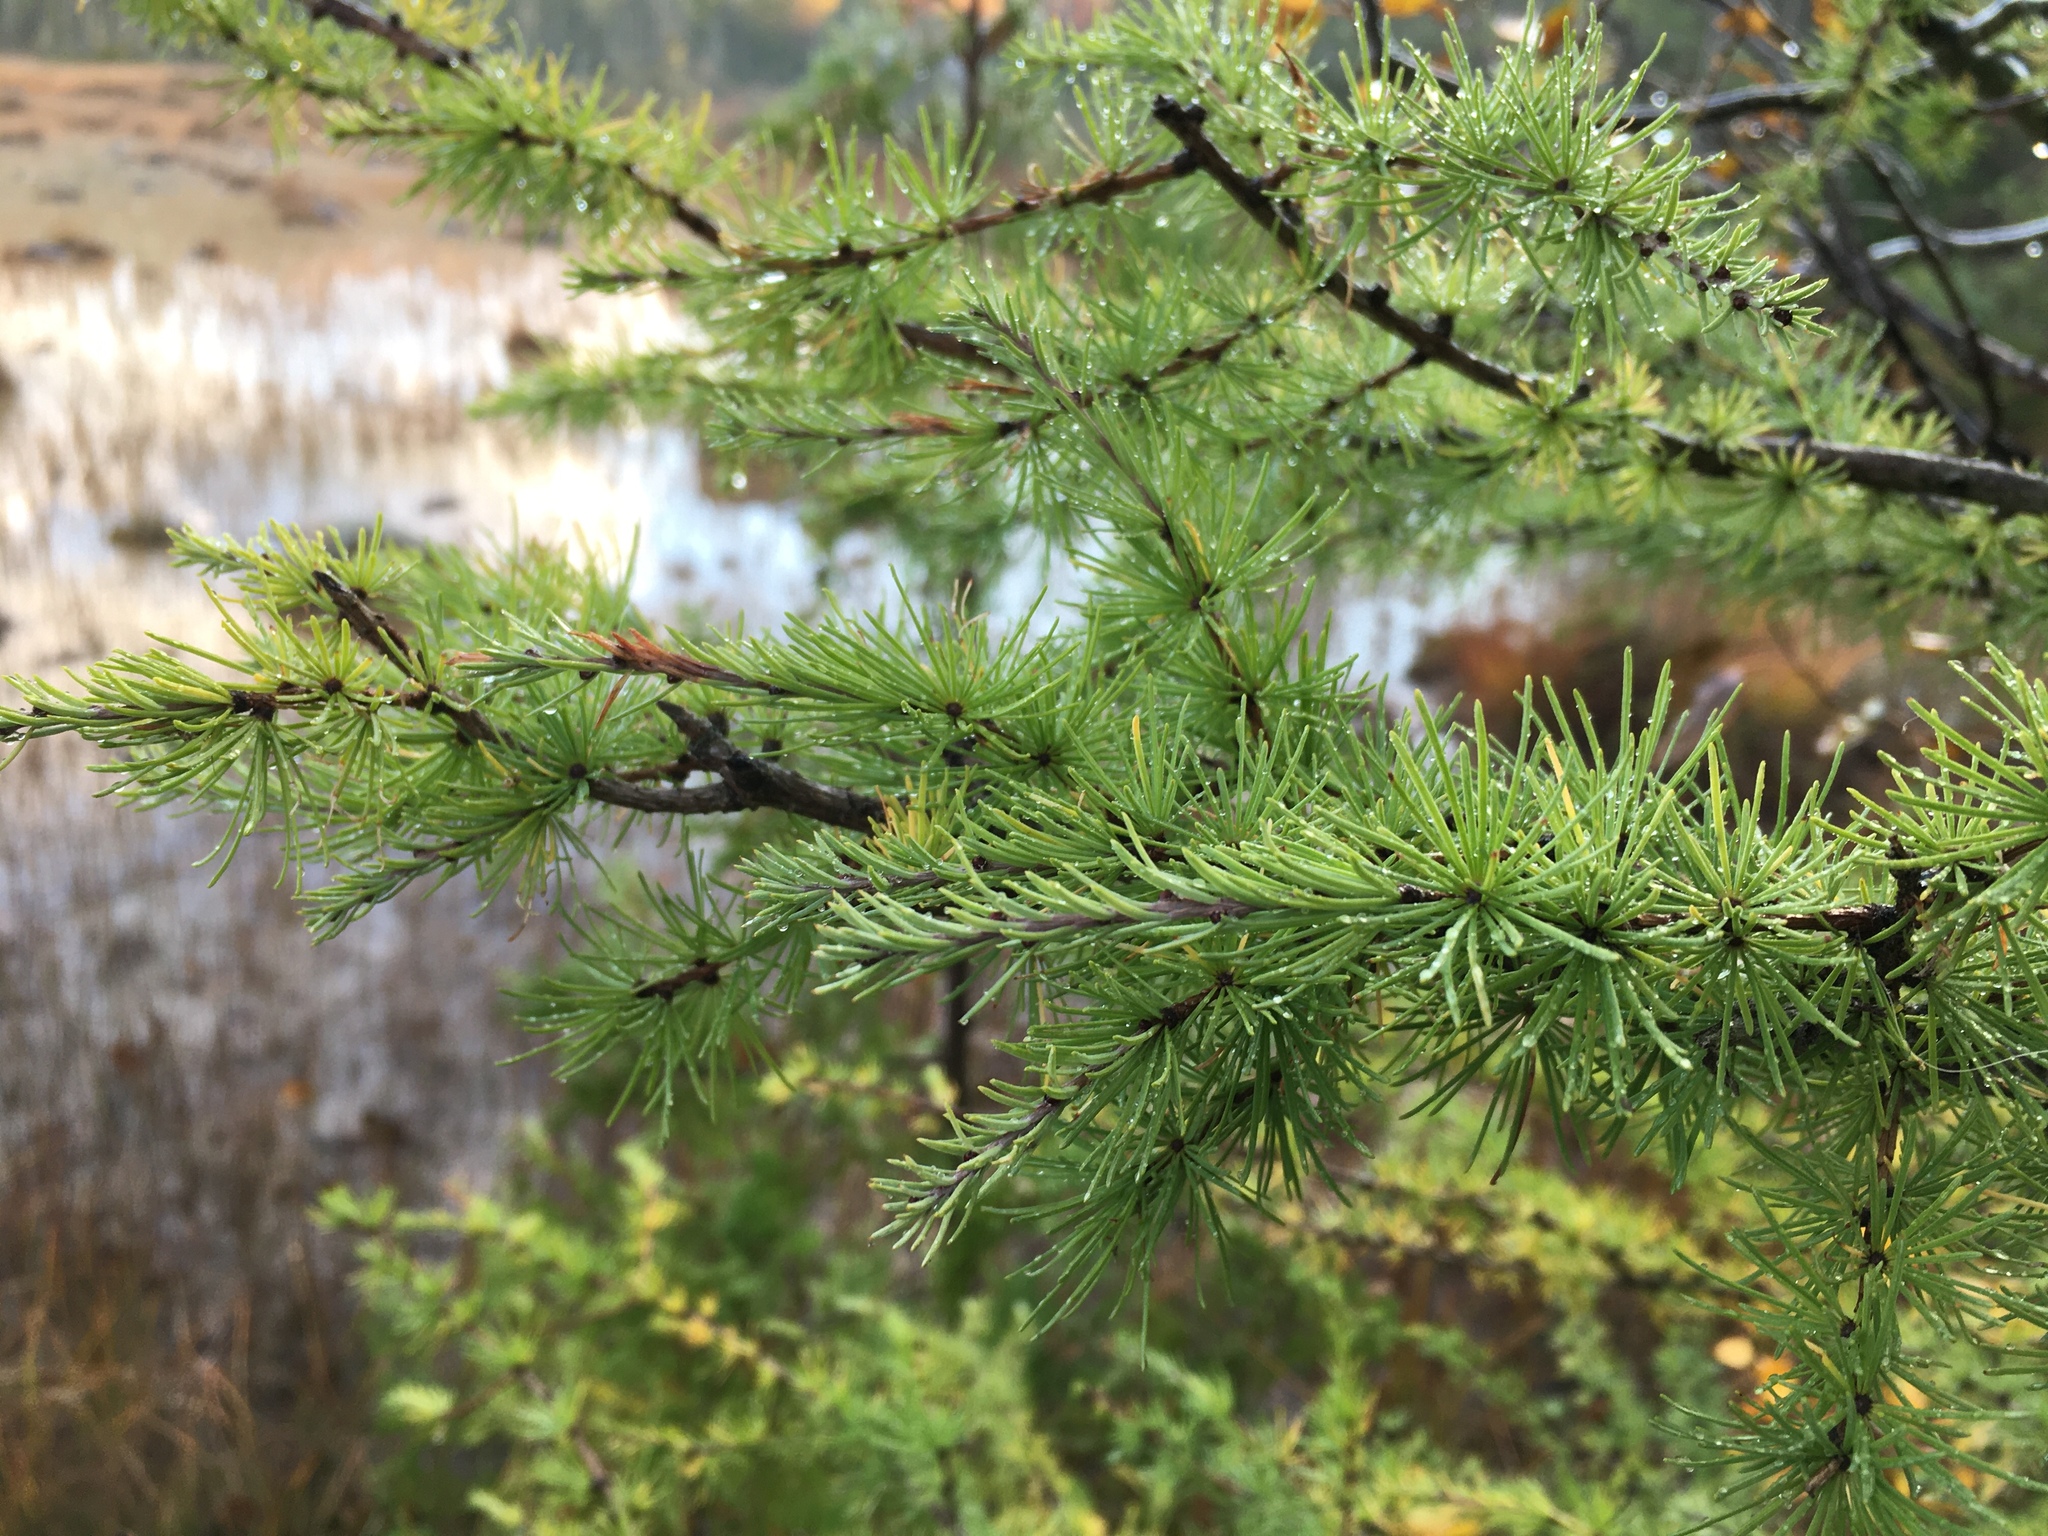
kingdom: Plantae
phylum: Tracheophyta
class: Pinopsida
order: Pinales
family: Pinaceae
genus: Larix
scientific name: Larix laricina
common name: American larch
